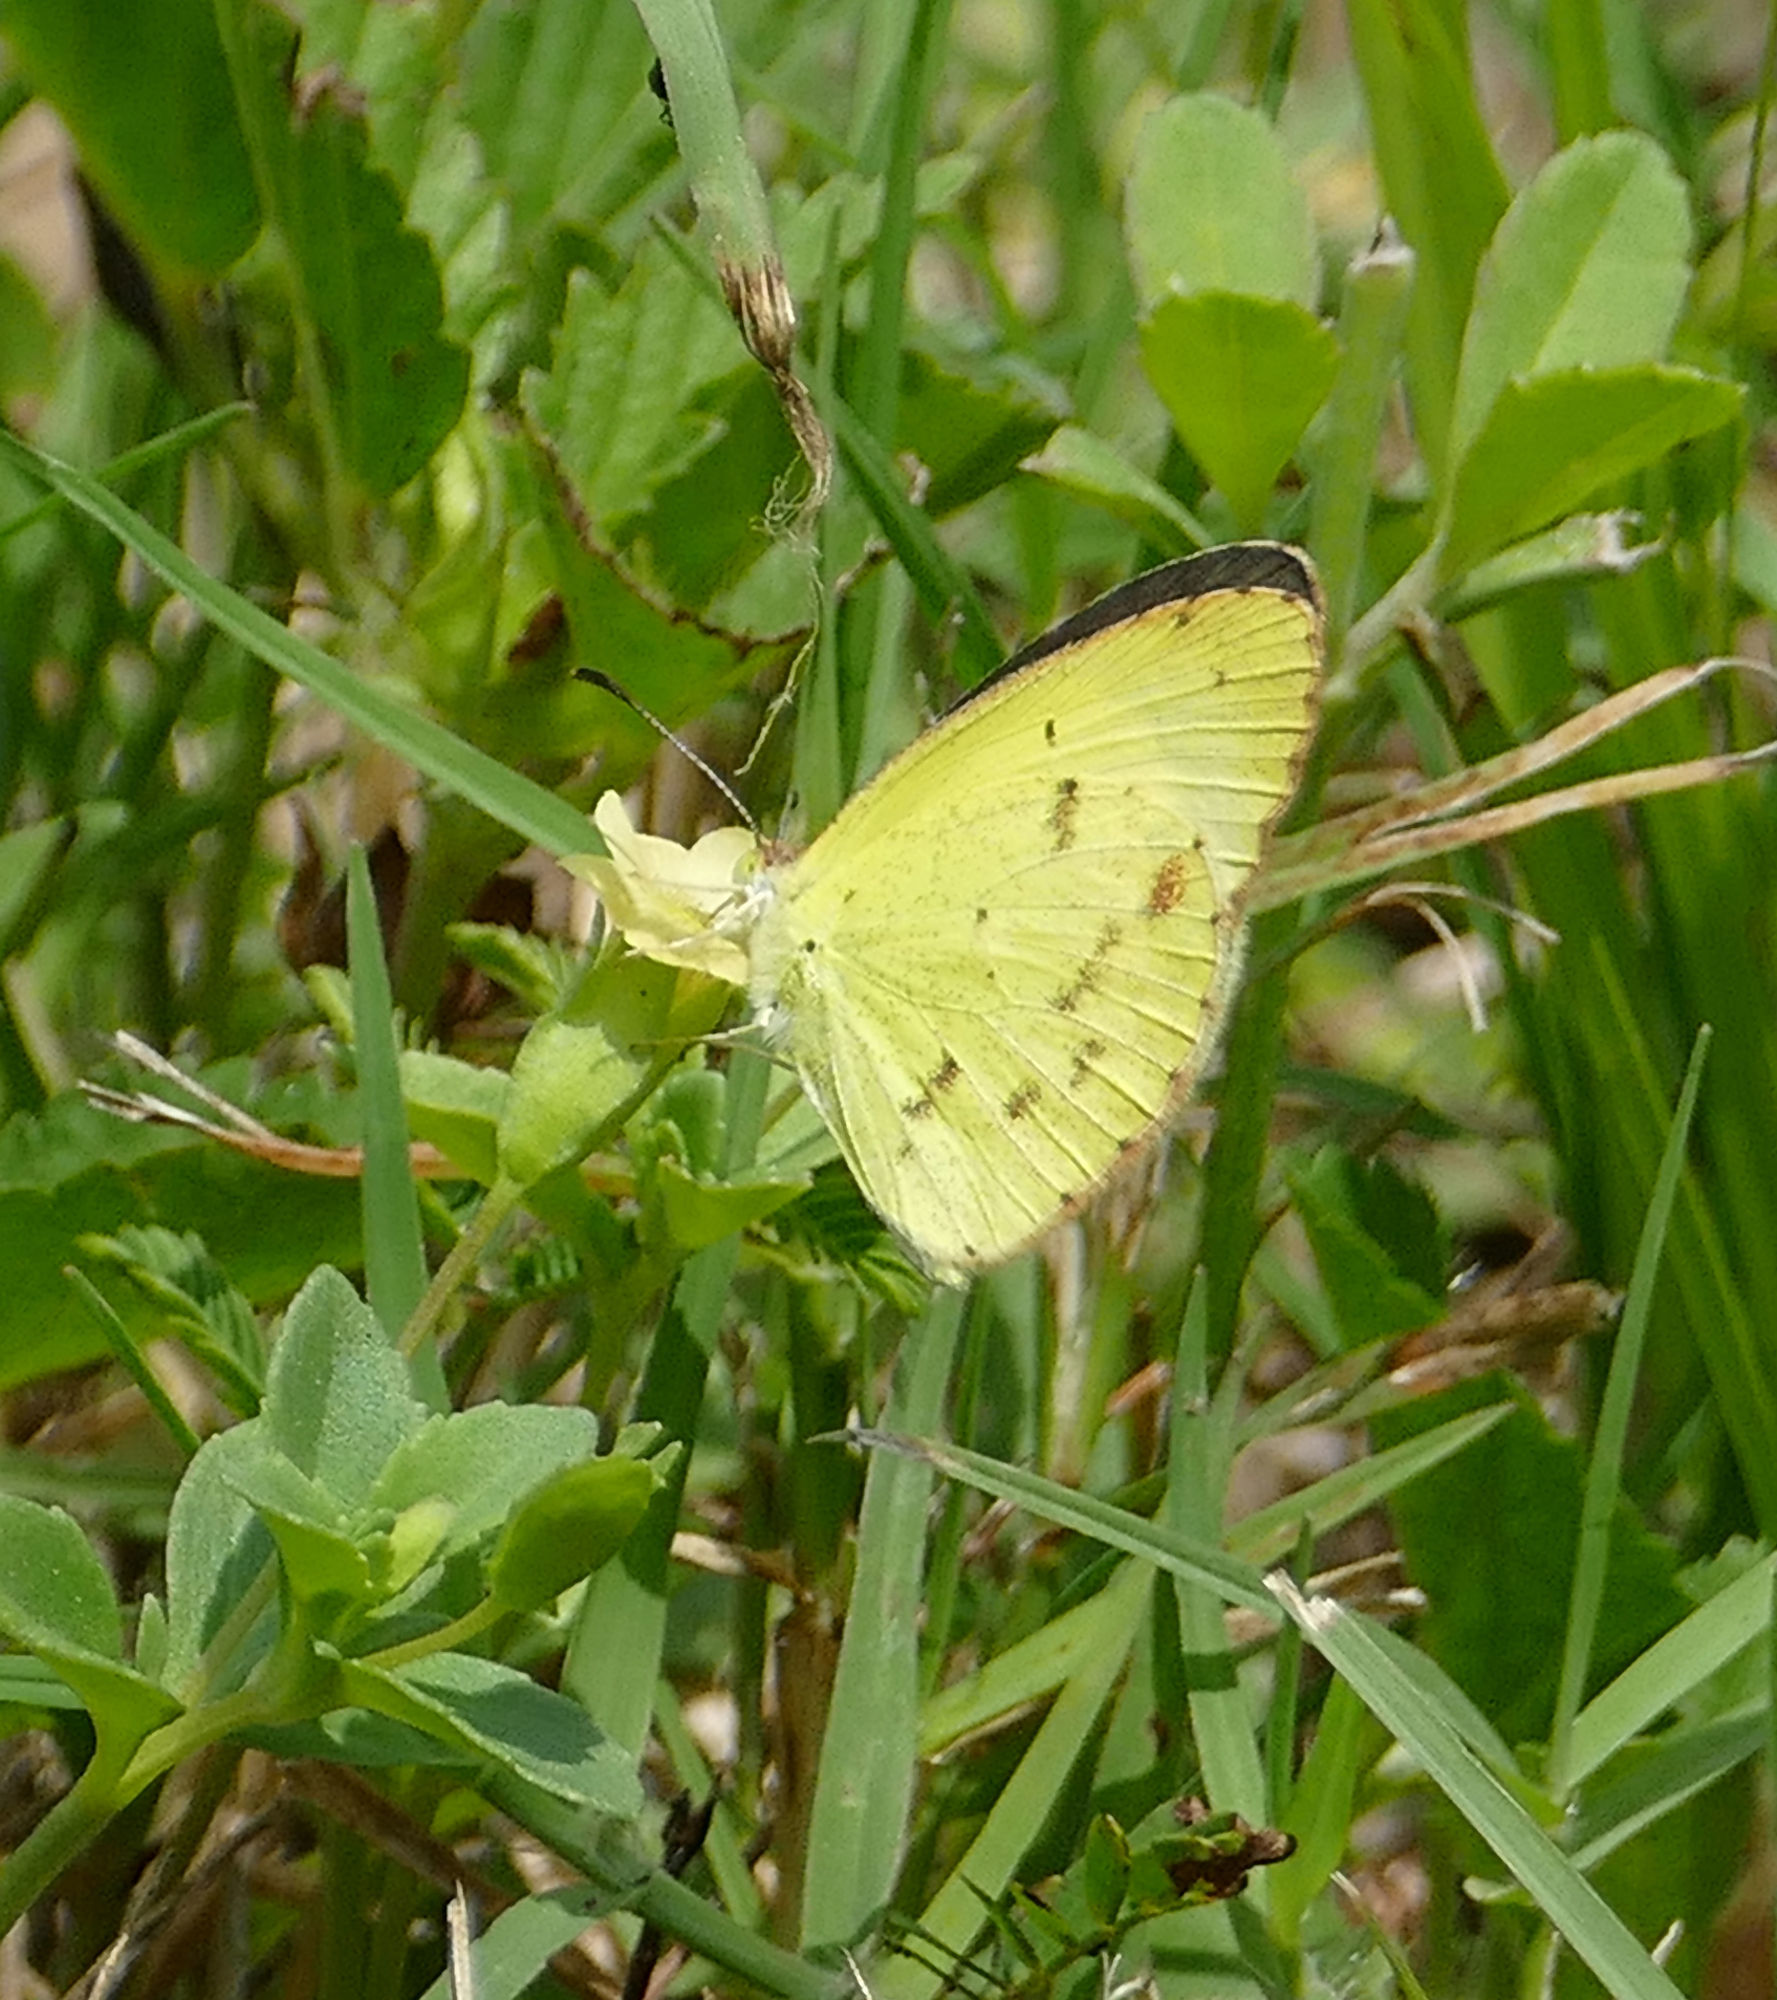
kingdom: Animalia
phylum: Arthropoda
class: Insecta
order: Lepidoptera
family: Pieridae
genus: Pyrisitia
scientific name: Pyrisitia lisa
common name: Little yellow
